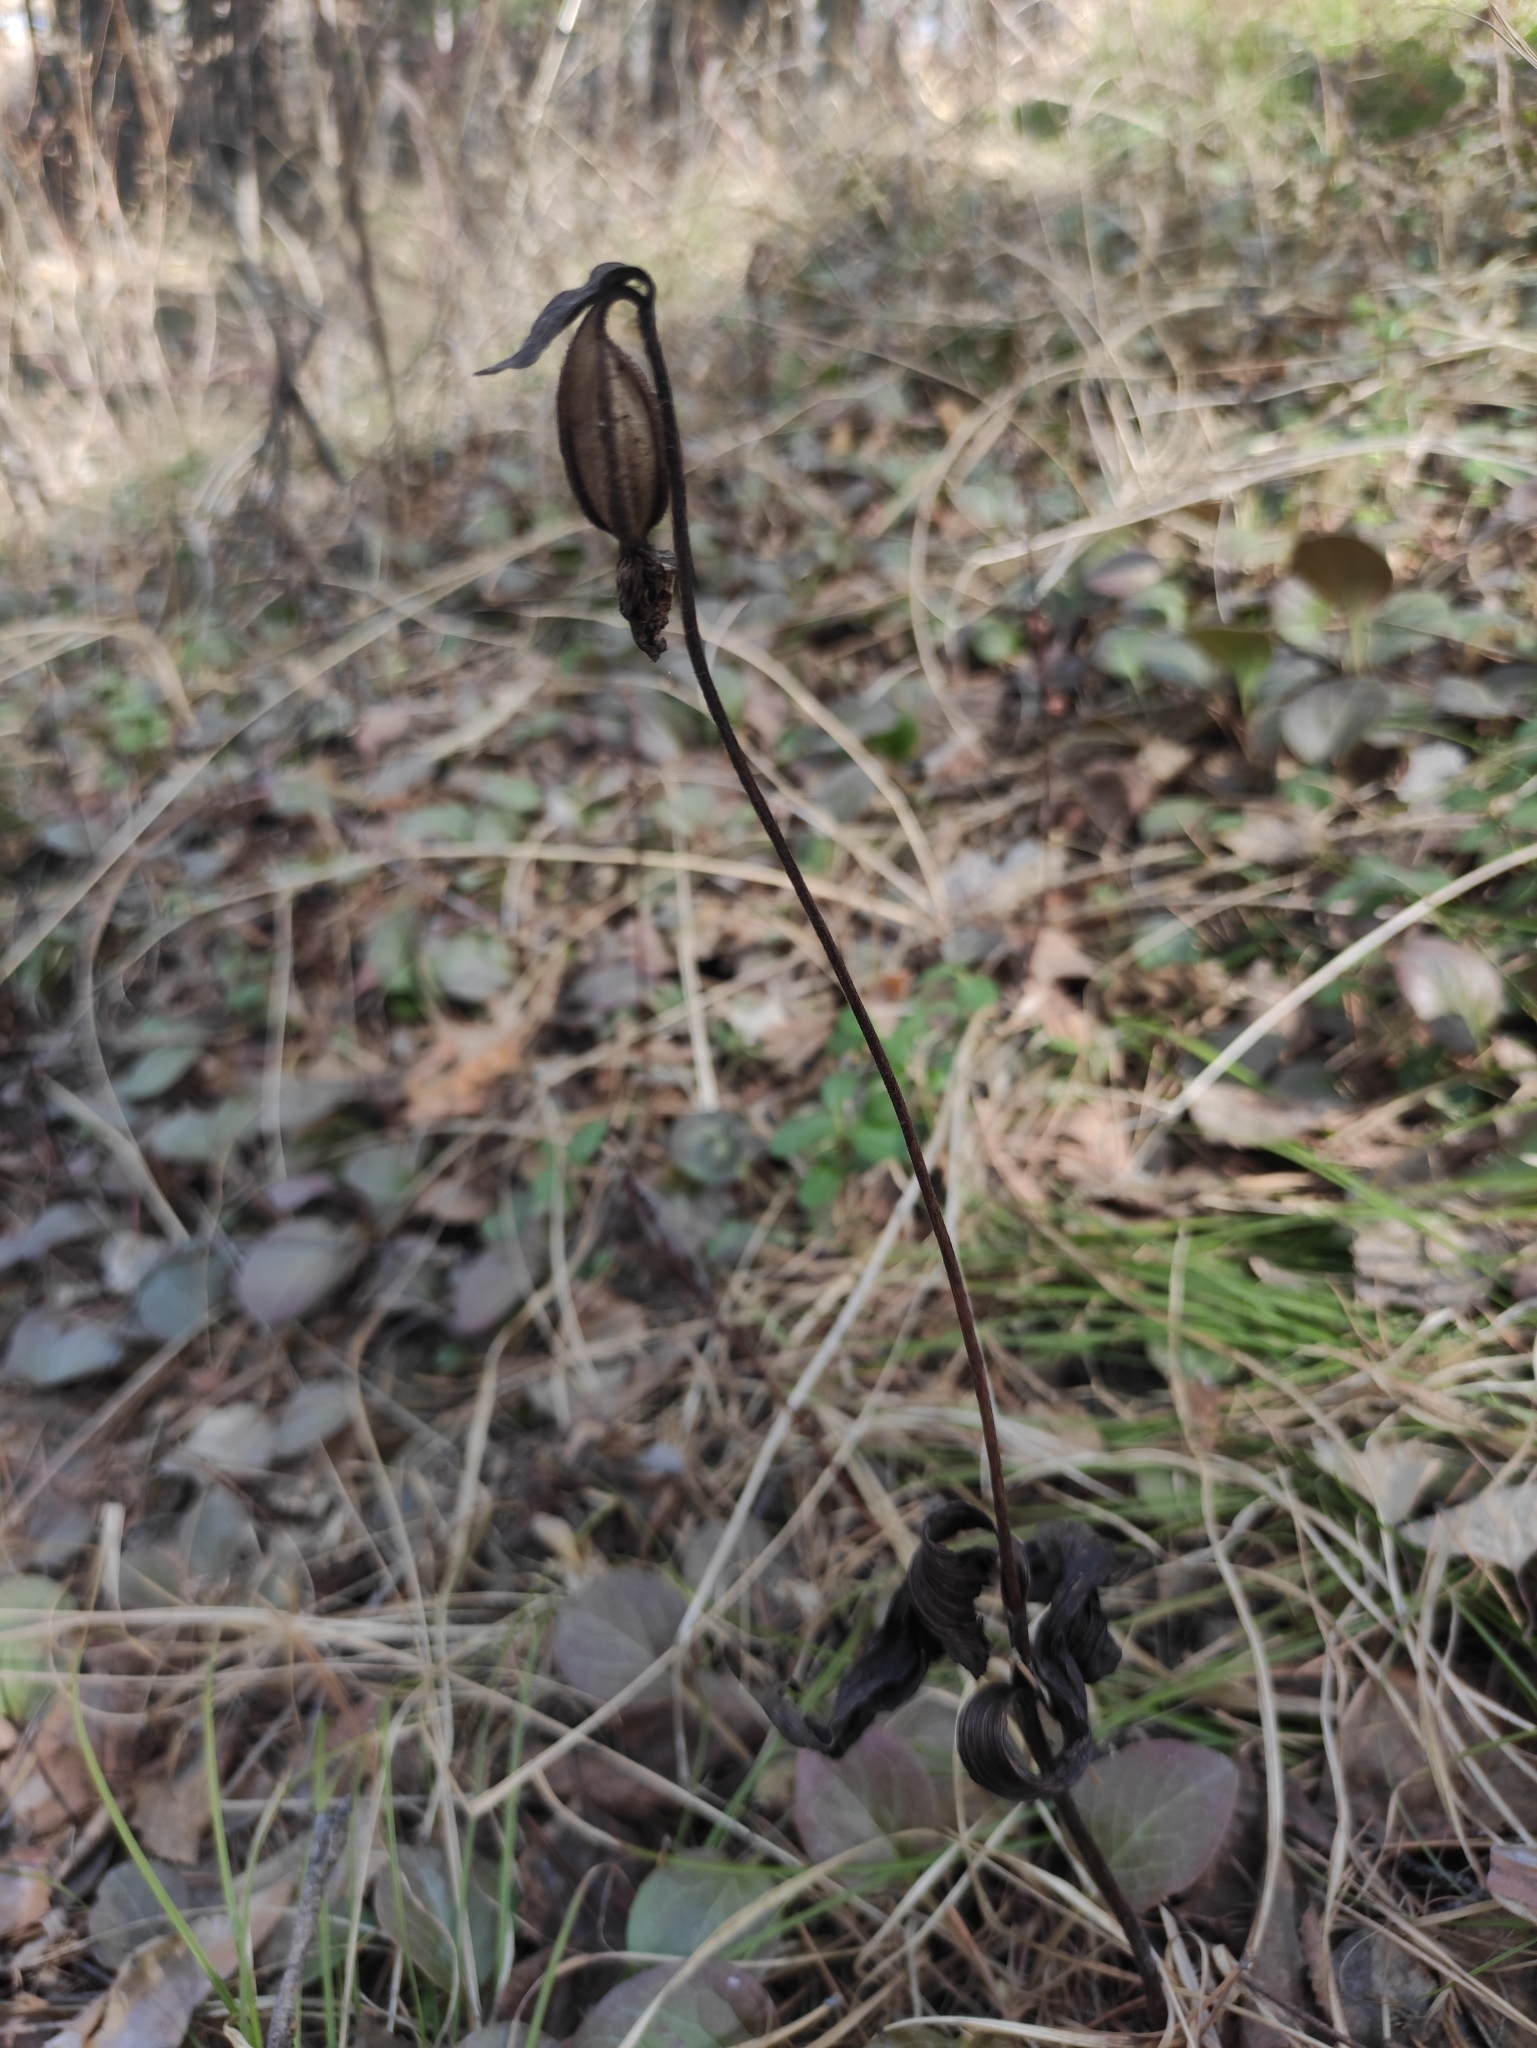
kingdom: Plantae
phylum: Tracheophyta
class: Liliopsida
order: Asparagales
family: Orchidaceae
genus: Cypripedium
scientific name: Cypripedium guttatum
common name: Pink lady slipper
